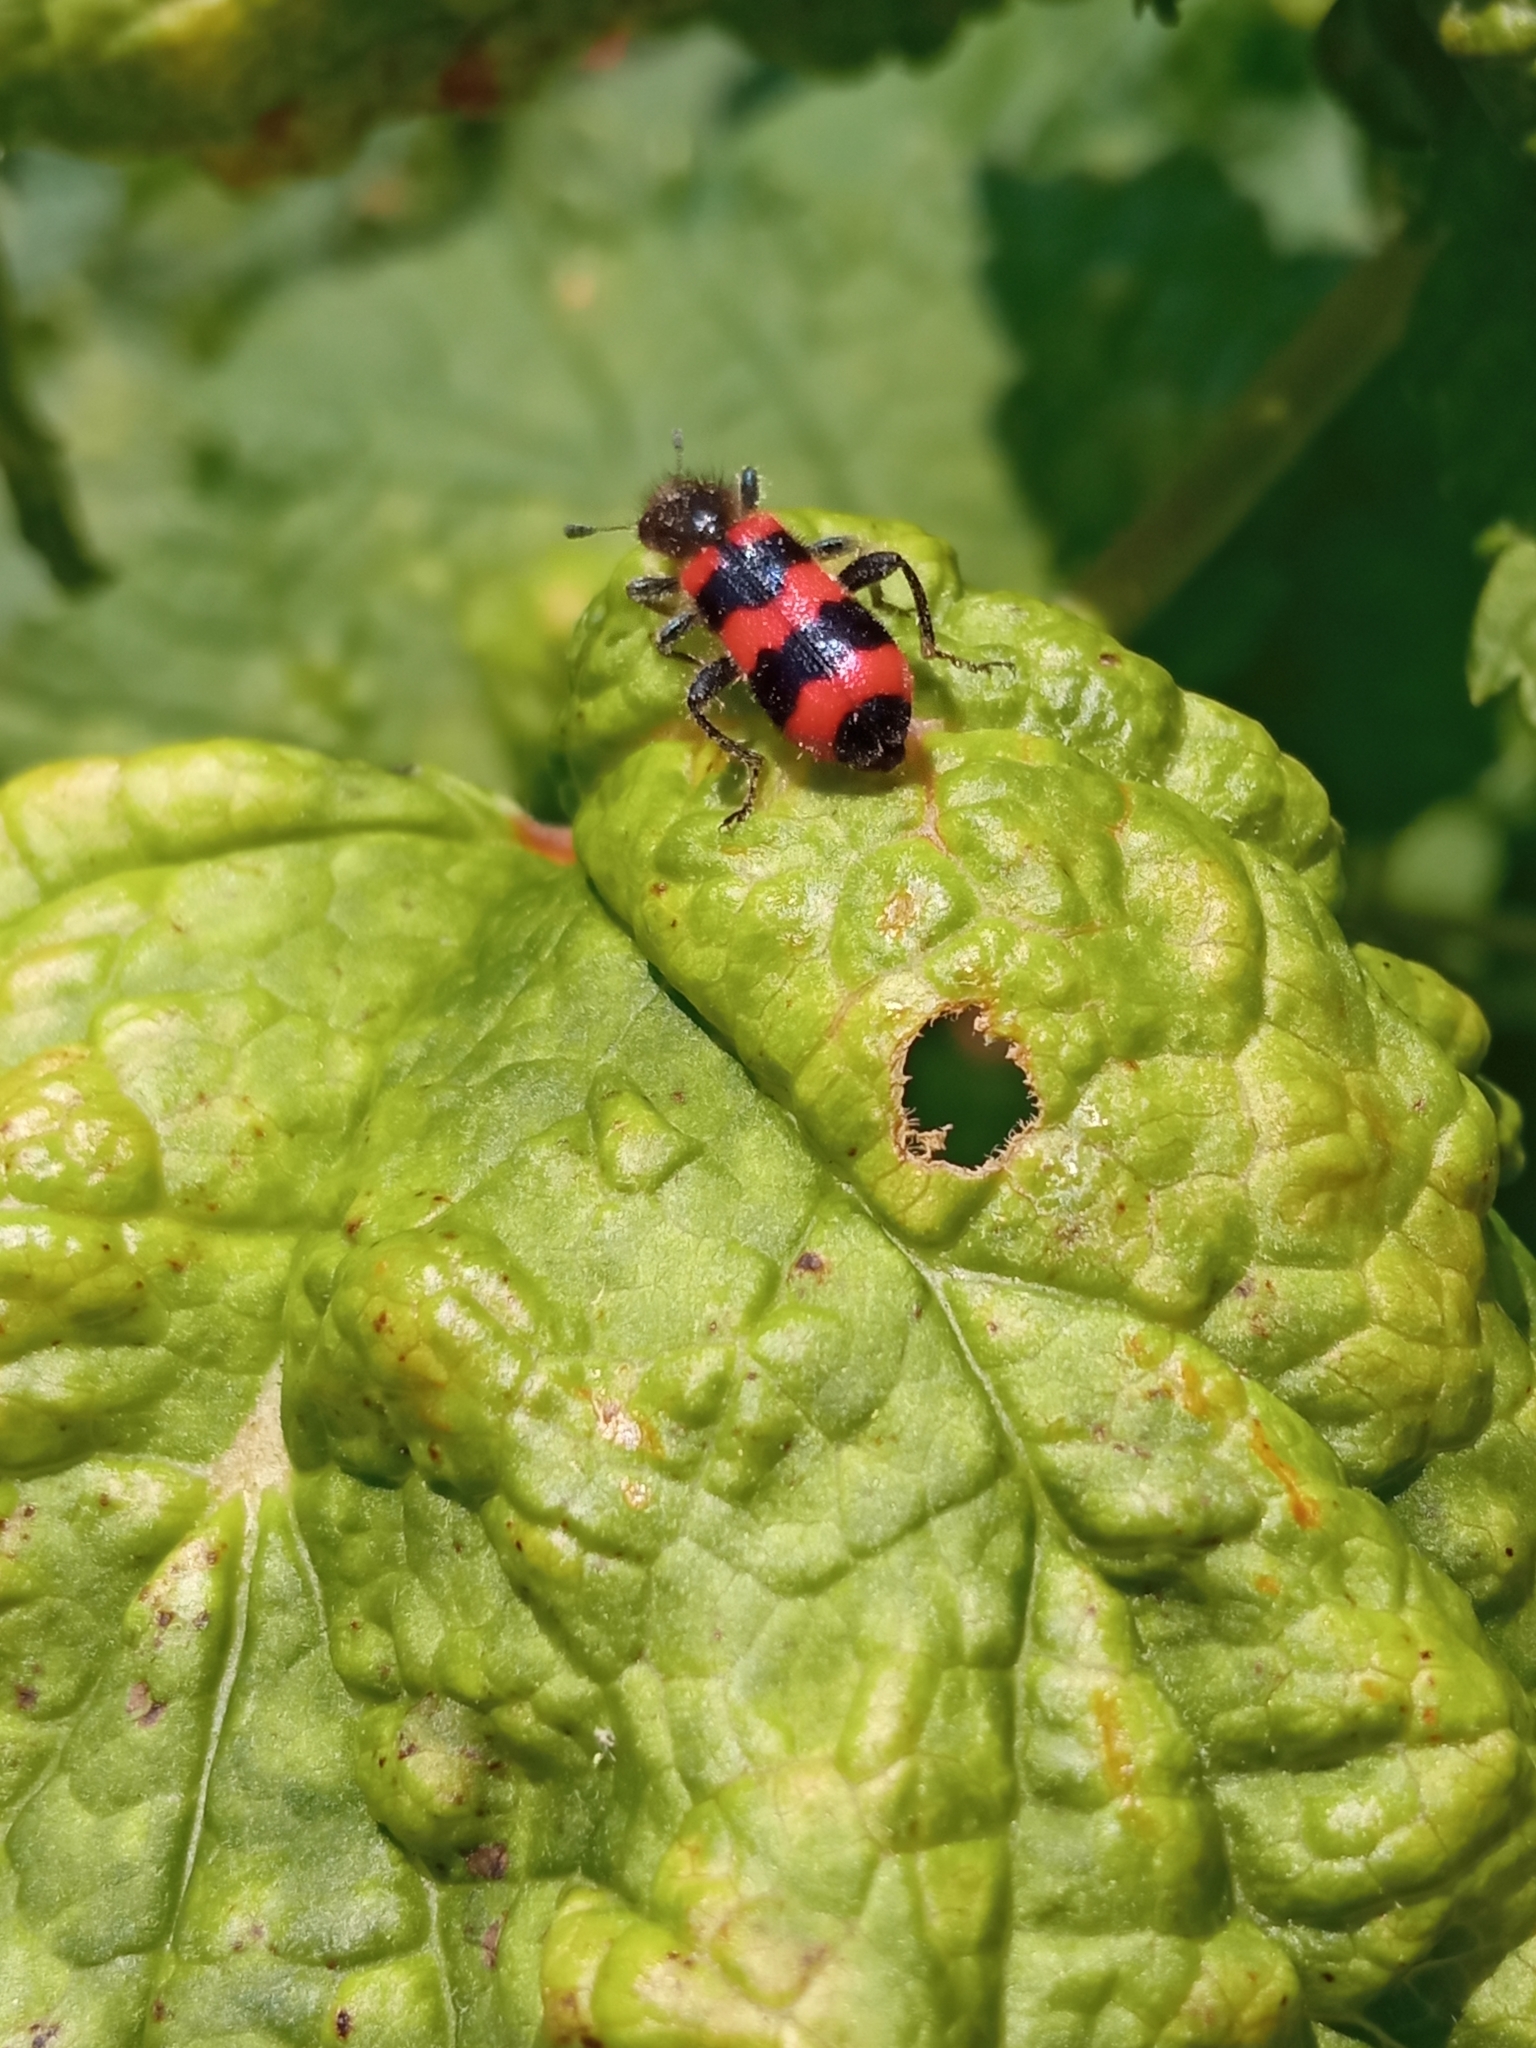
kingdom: Animalia
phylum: Arthropoda
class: Insecta
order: Coleoptera
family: Cleridae
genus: Trichodes
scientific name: Trichodes apiarius
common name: Bee-eating beetle
